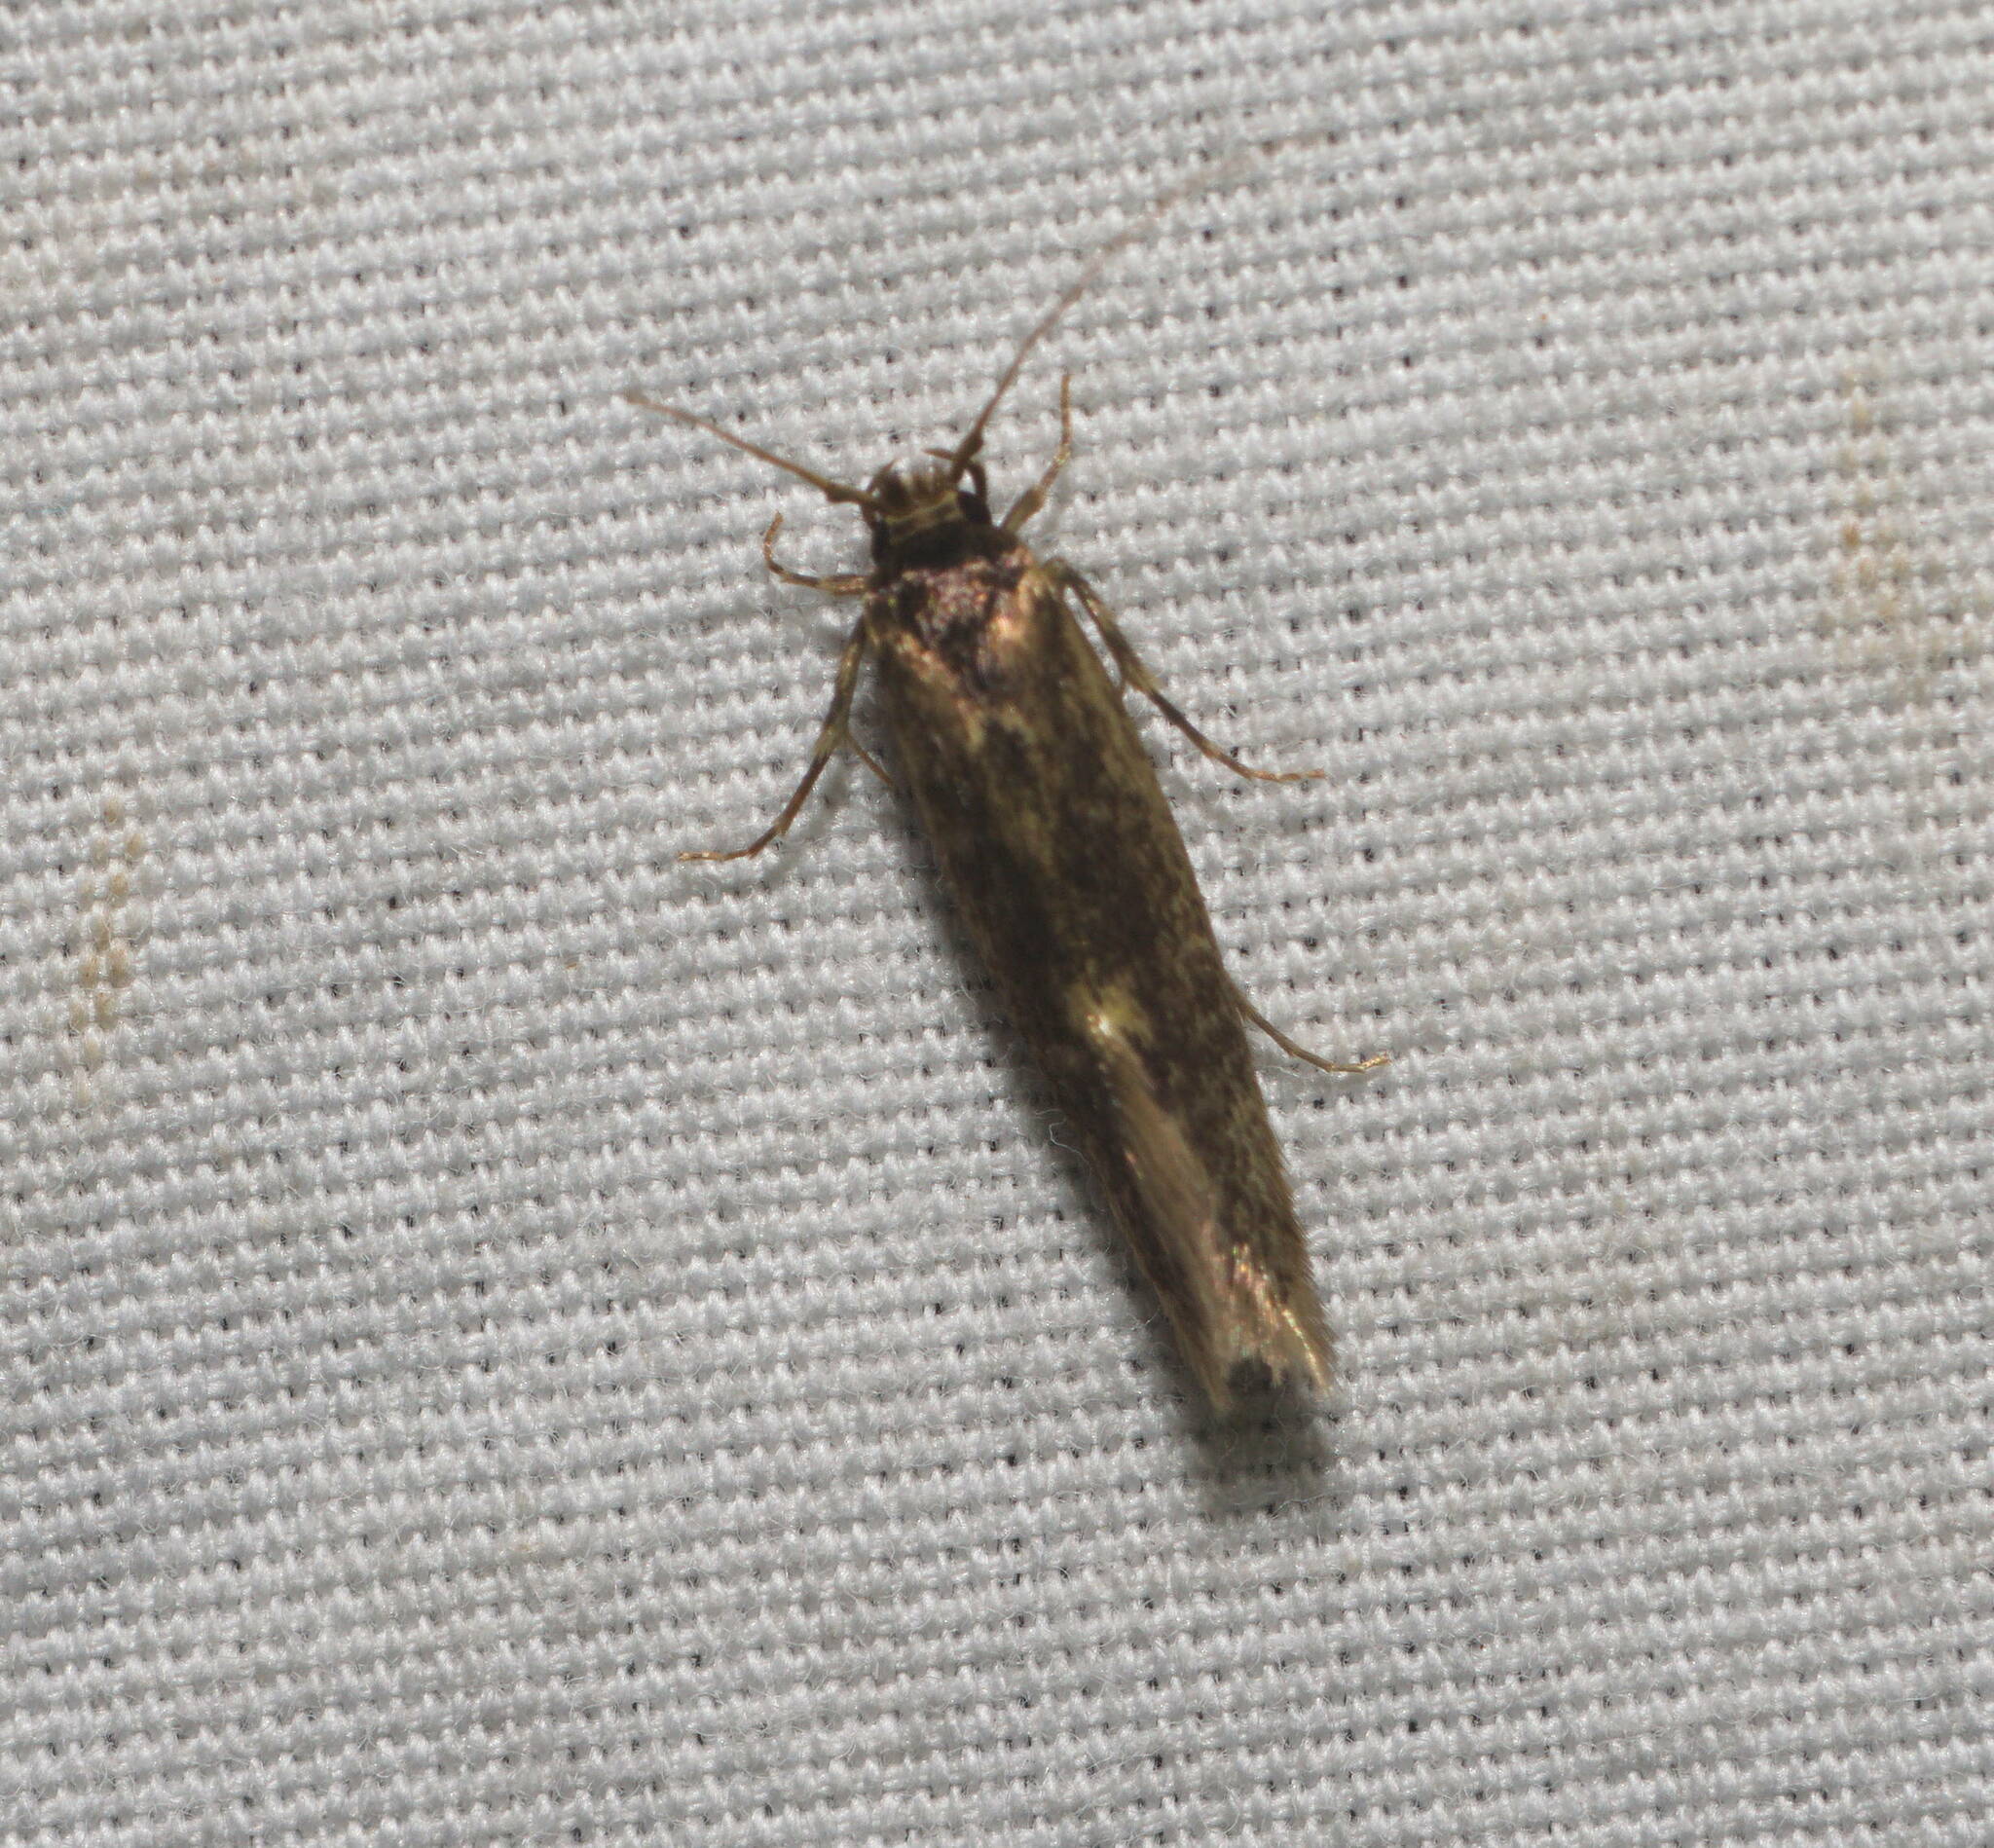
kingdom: Animalia
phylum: Arthropoda
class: Insecta
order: Lepidoptera
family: Tineidae
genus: Opogona
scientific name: Opogona omoscopa
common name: Moth
